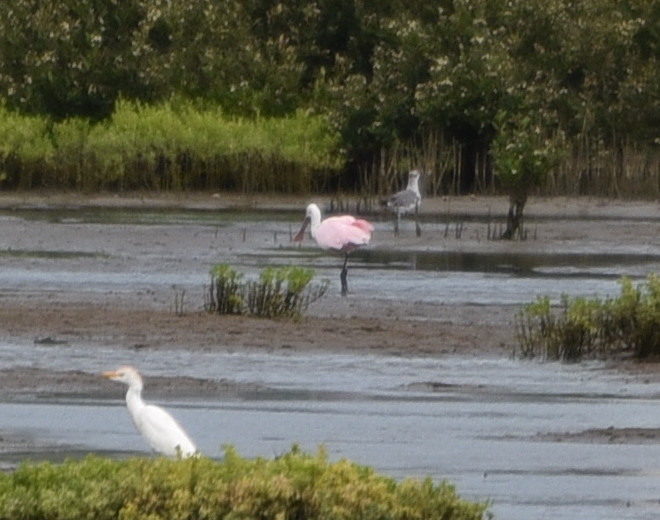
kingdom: Animalia
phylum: Chordata
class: Aves
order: Pelecaniformes
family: Threskiornithidae
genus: Platalea
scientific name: Platalea ajaja
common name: Roseate spoonbill
